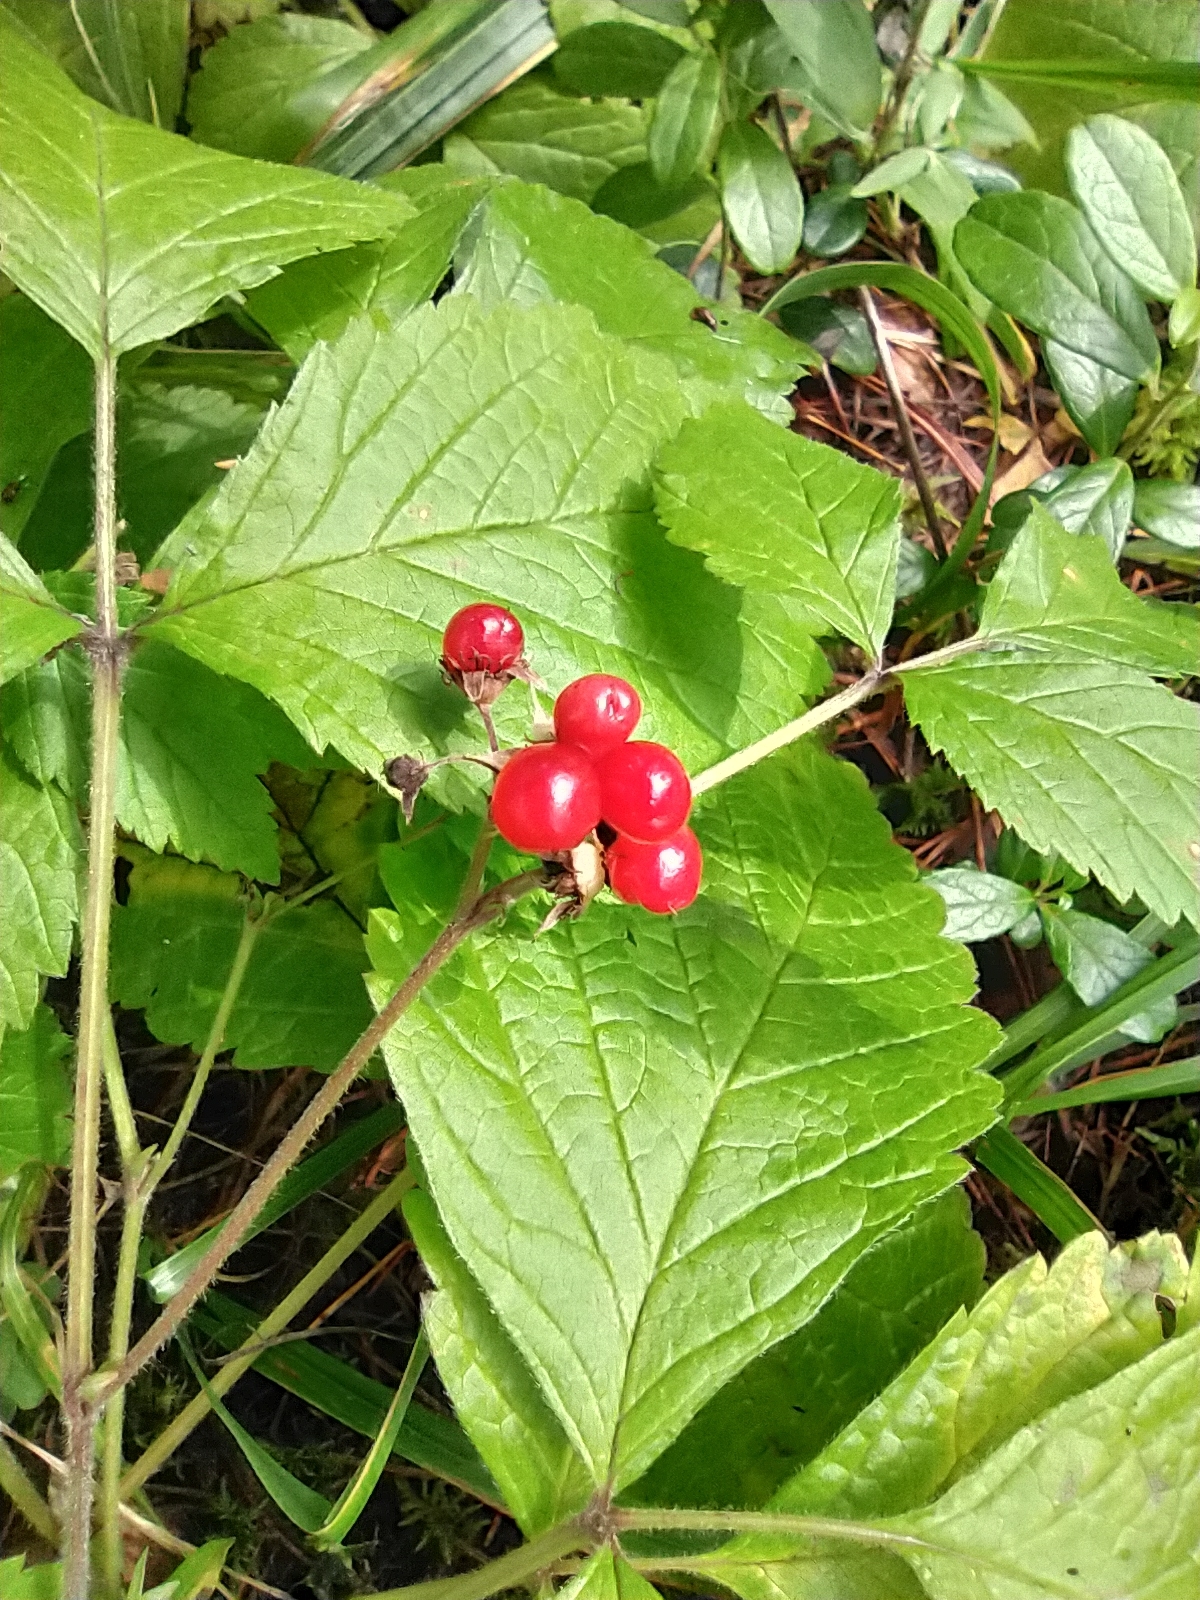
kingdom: Plantae
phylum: Tracheophyta
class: Magnoliopsida
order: Rosales
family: Rosaceae
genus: Rubus
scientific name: Rubus saxatilis
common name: Stone bramble
